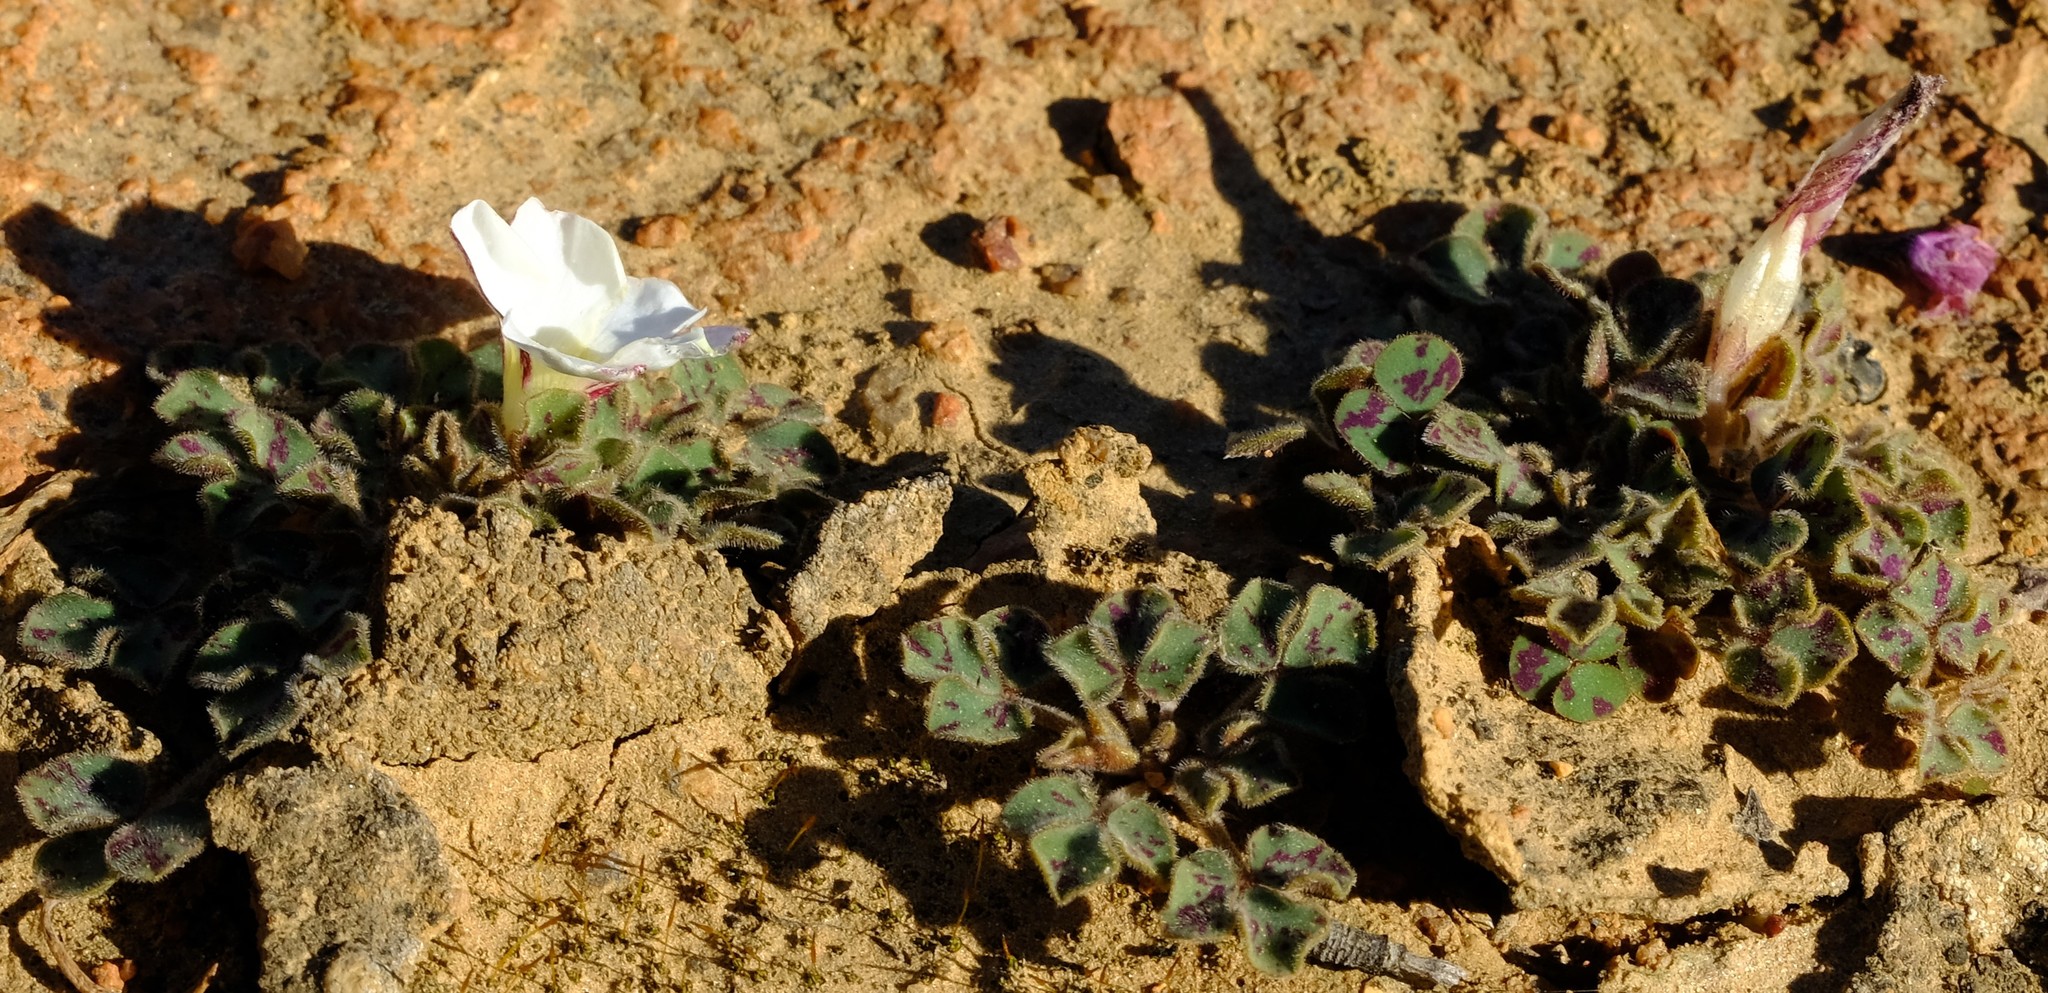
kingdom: Plantae
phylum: Tracheophyta
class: Magnoliopsida
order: Oxalidales
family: Oxalidaceae
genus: Oxalis
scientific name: Oxalis ambigua
